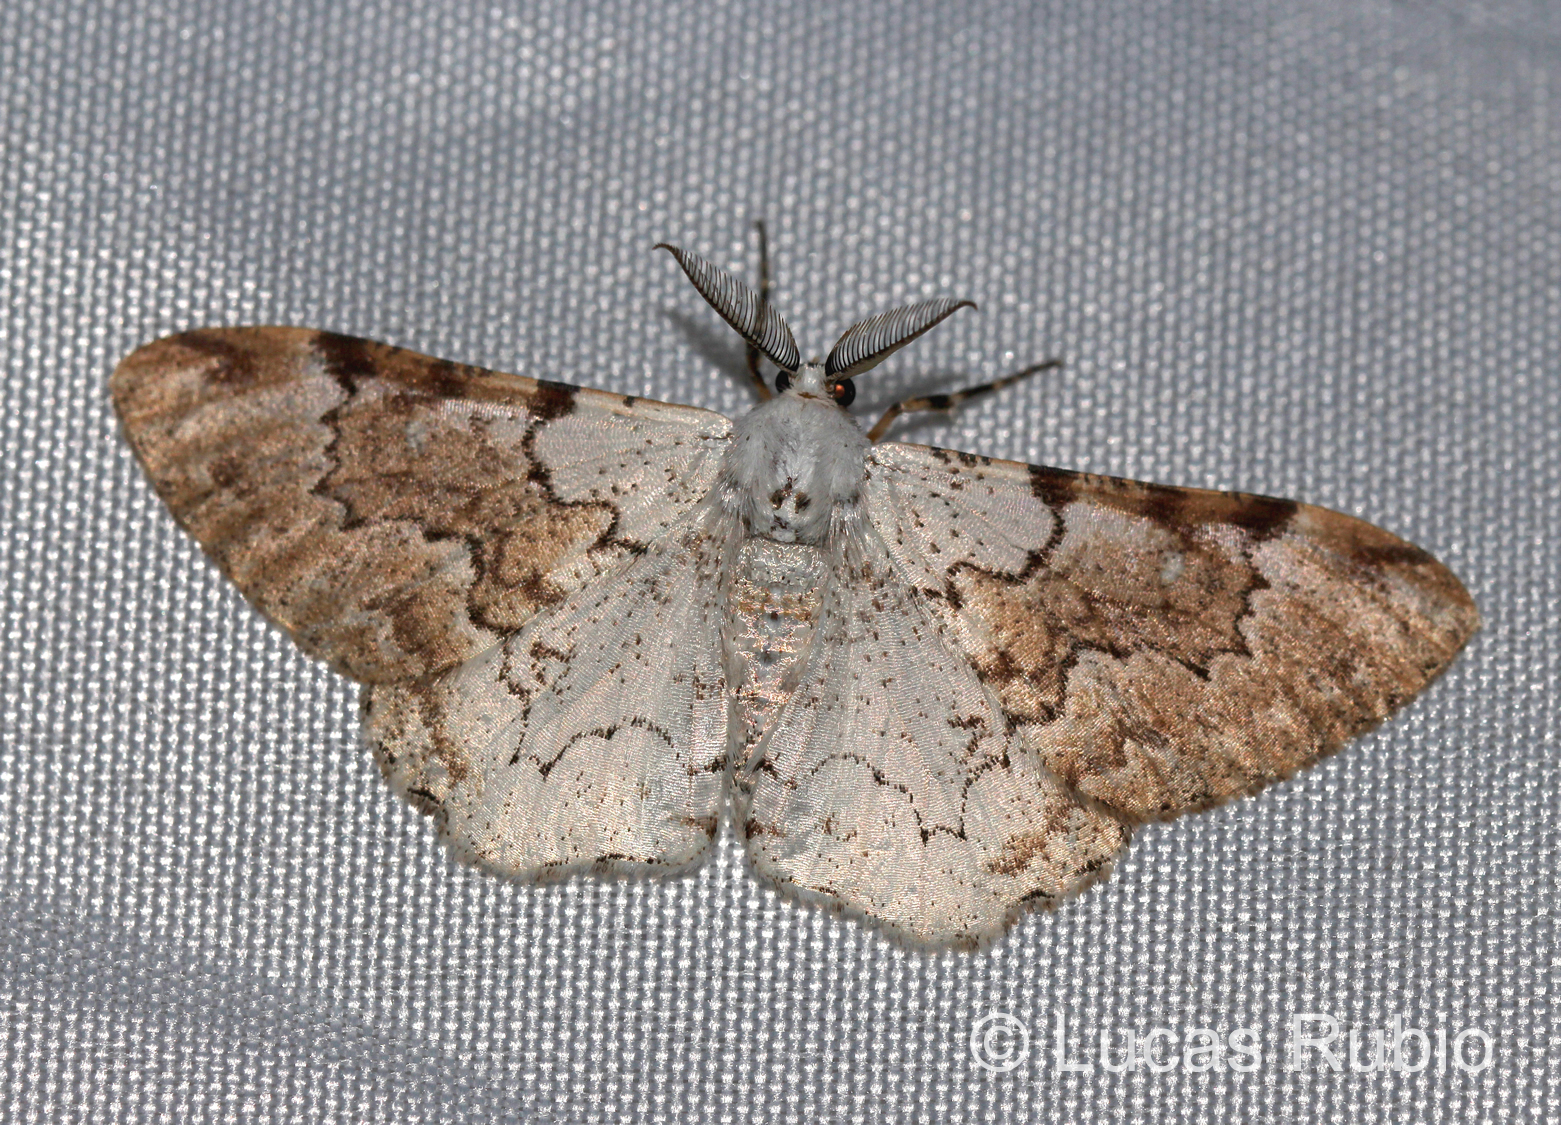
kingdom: Animalia
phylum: Arthropoda
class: Insecta
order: Lepidoptera
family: Geometridae
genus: Thyrinteina
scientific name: Thyrinteina arnobia
